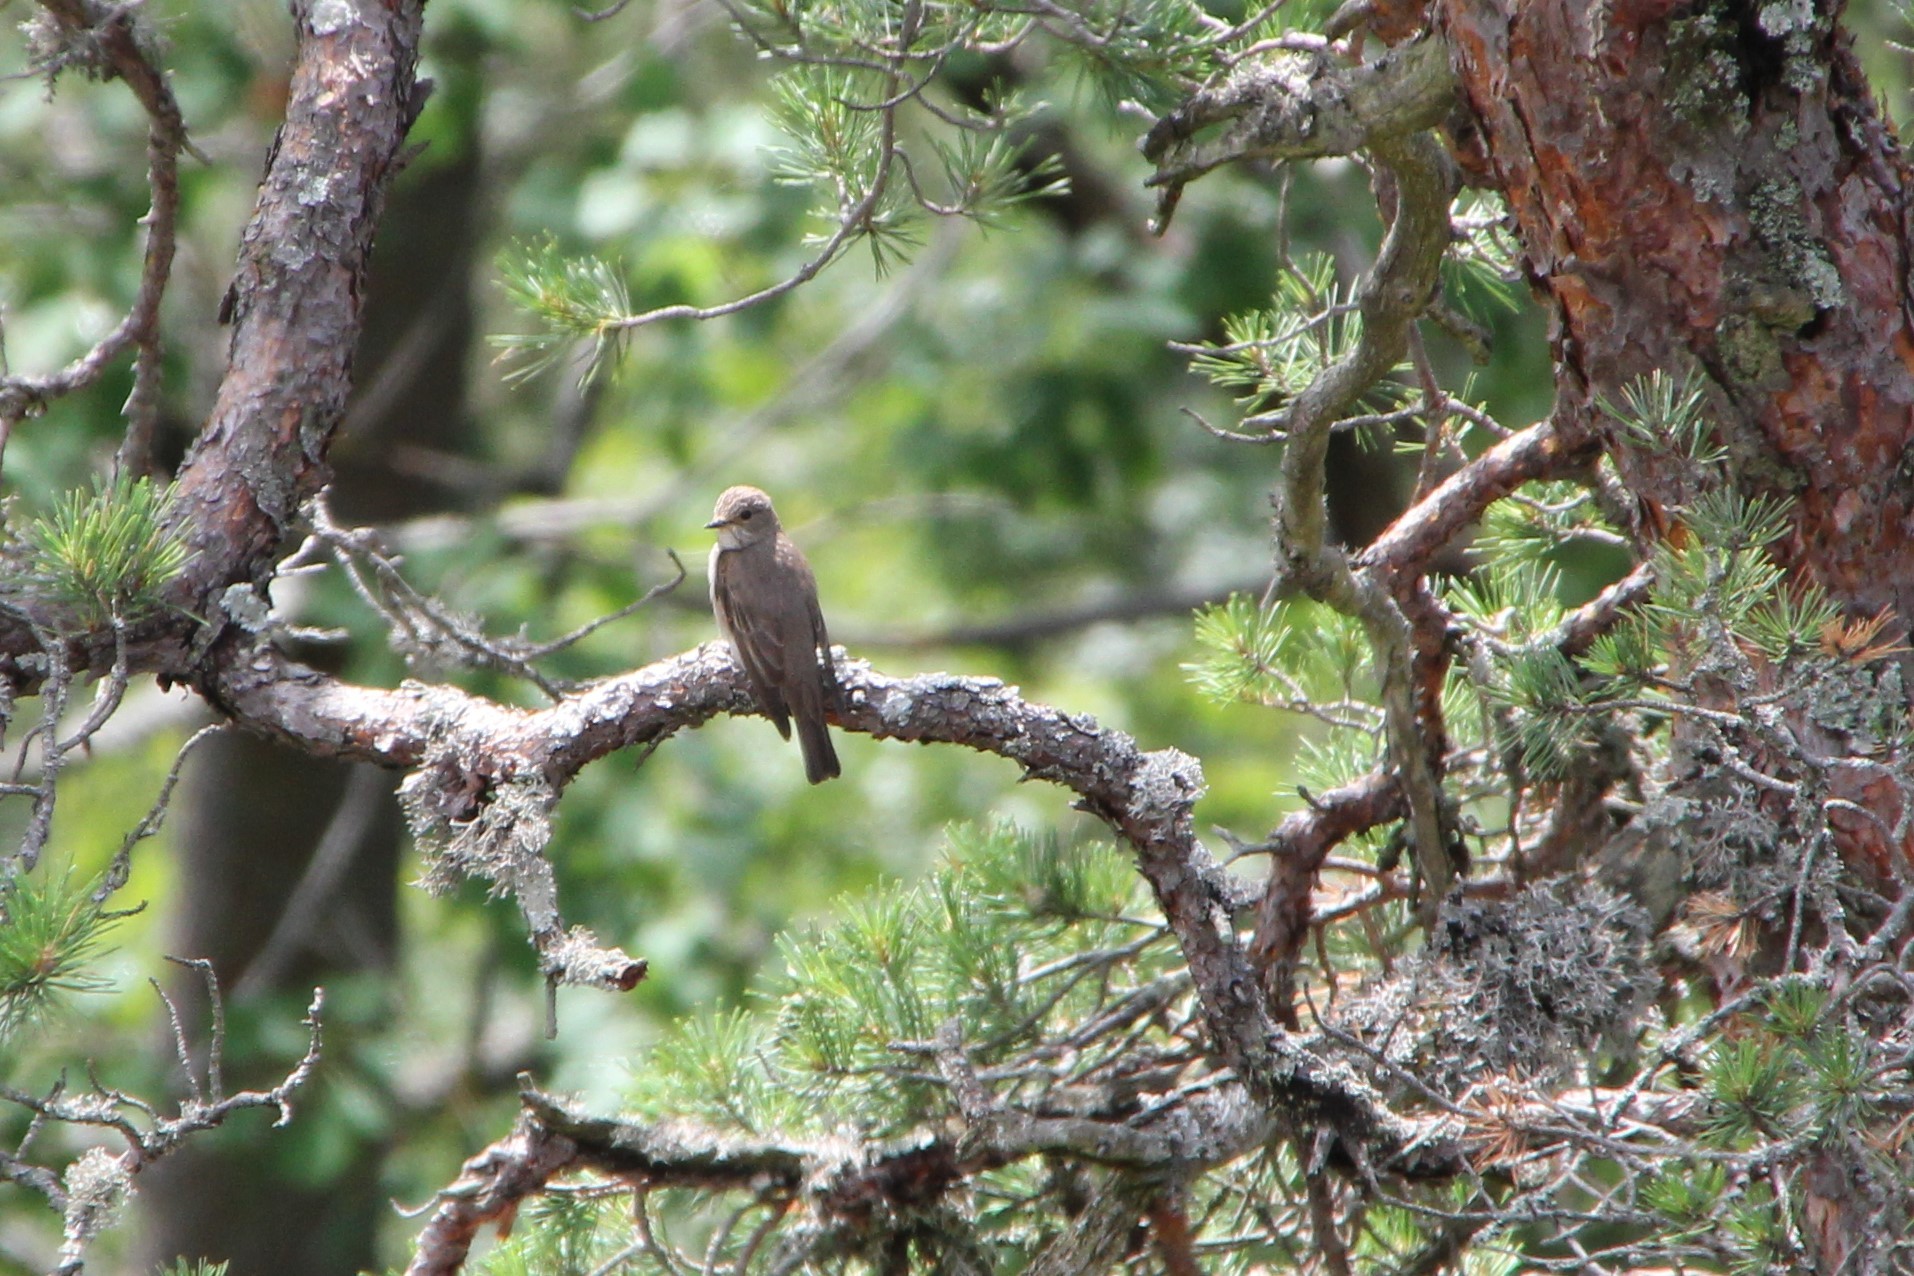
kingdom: Animalia
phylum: Chordata
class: Aves
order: Passeriformes
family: Muscicapidae
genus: Muscicapa
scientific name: Muscicapa striata
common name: Spotted flycatcher
